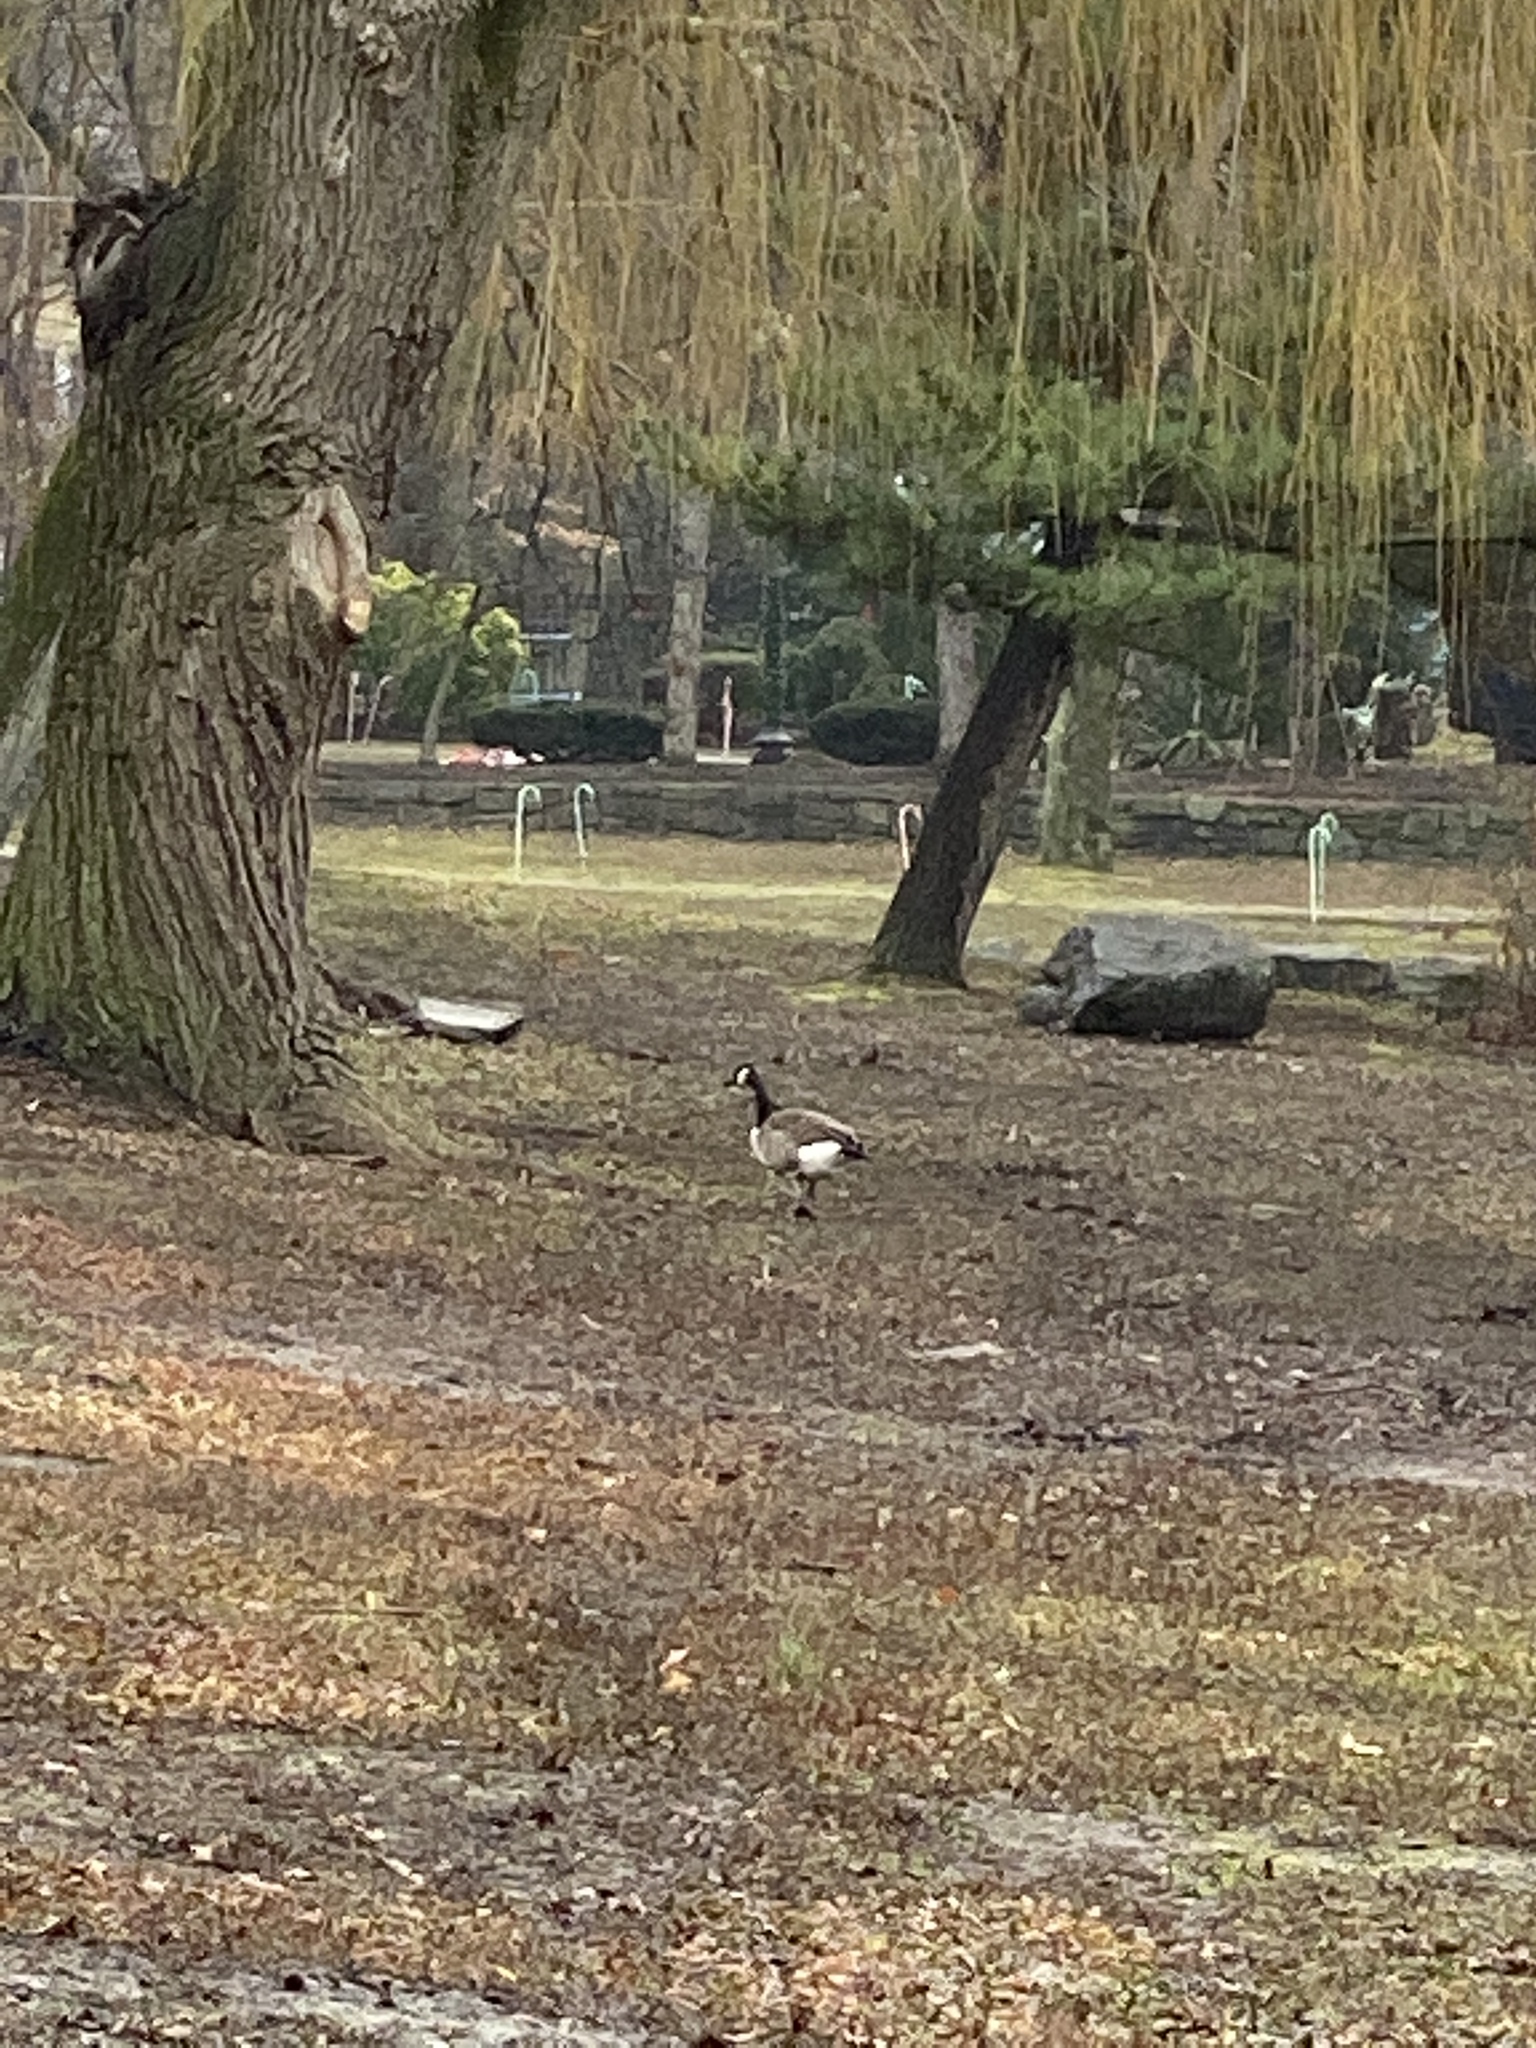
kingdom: Animalia
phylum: Chordata
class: Aves
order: Anseriformes
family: Anatidae
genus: Branta
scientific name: Branta canadensis
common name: Canada goose
